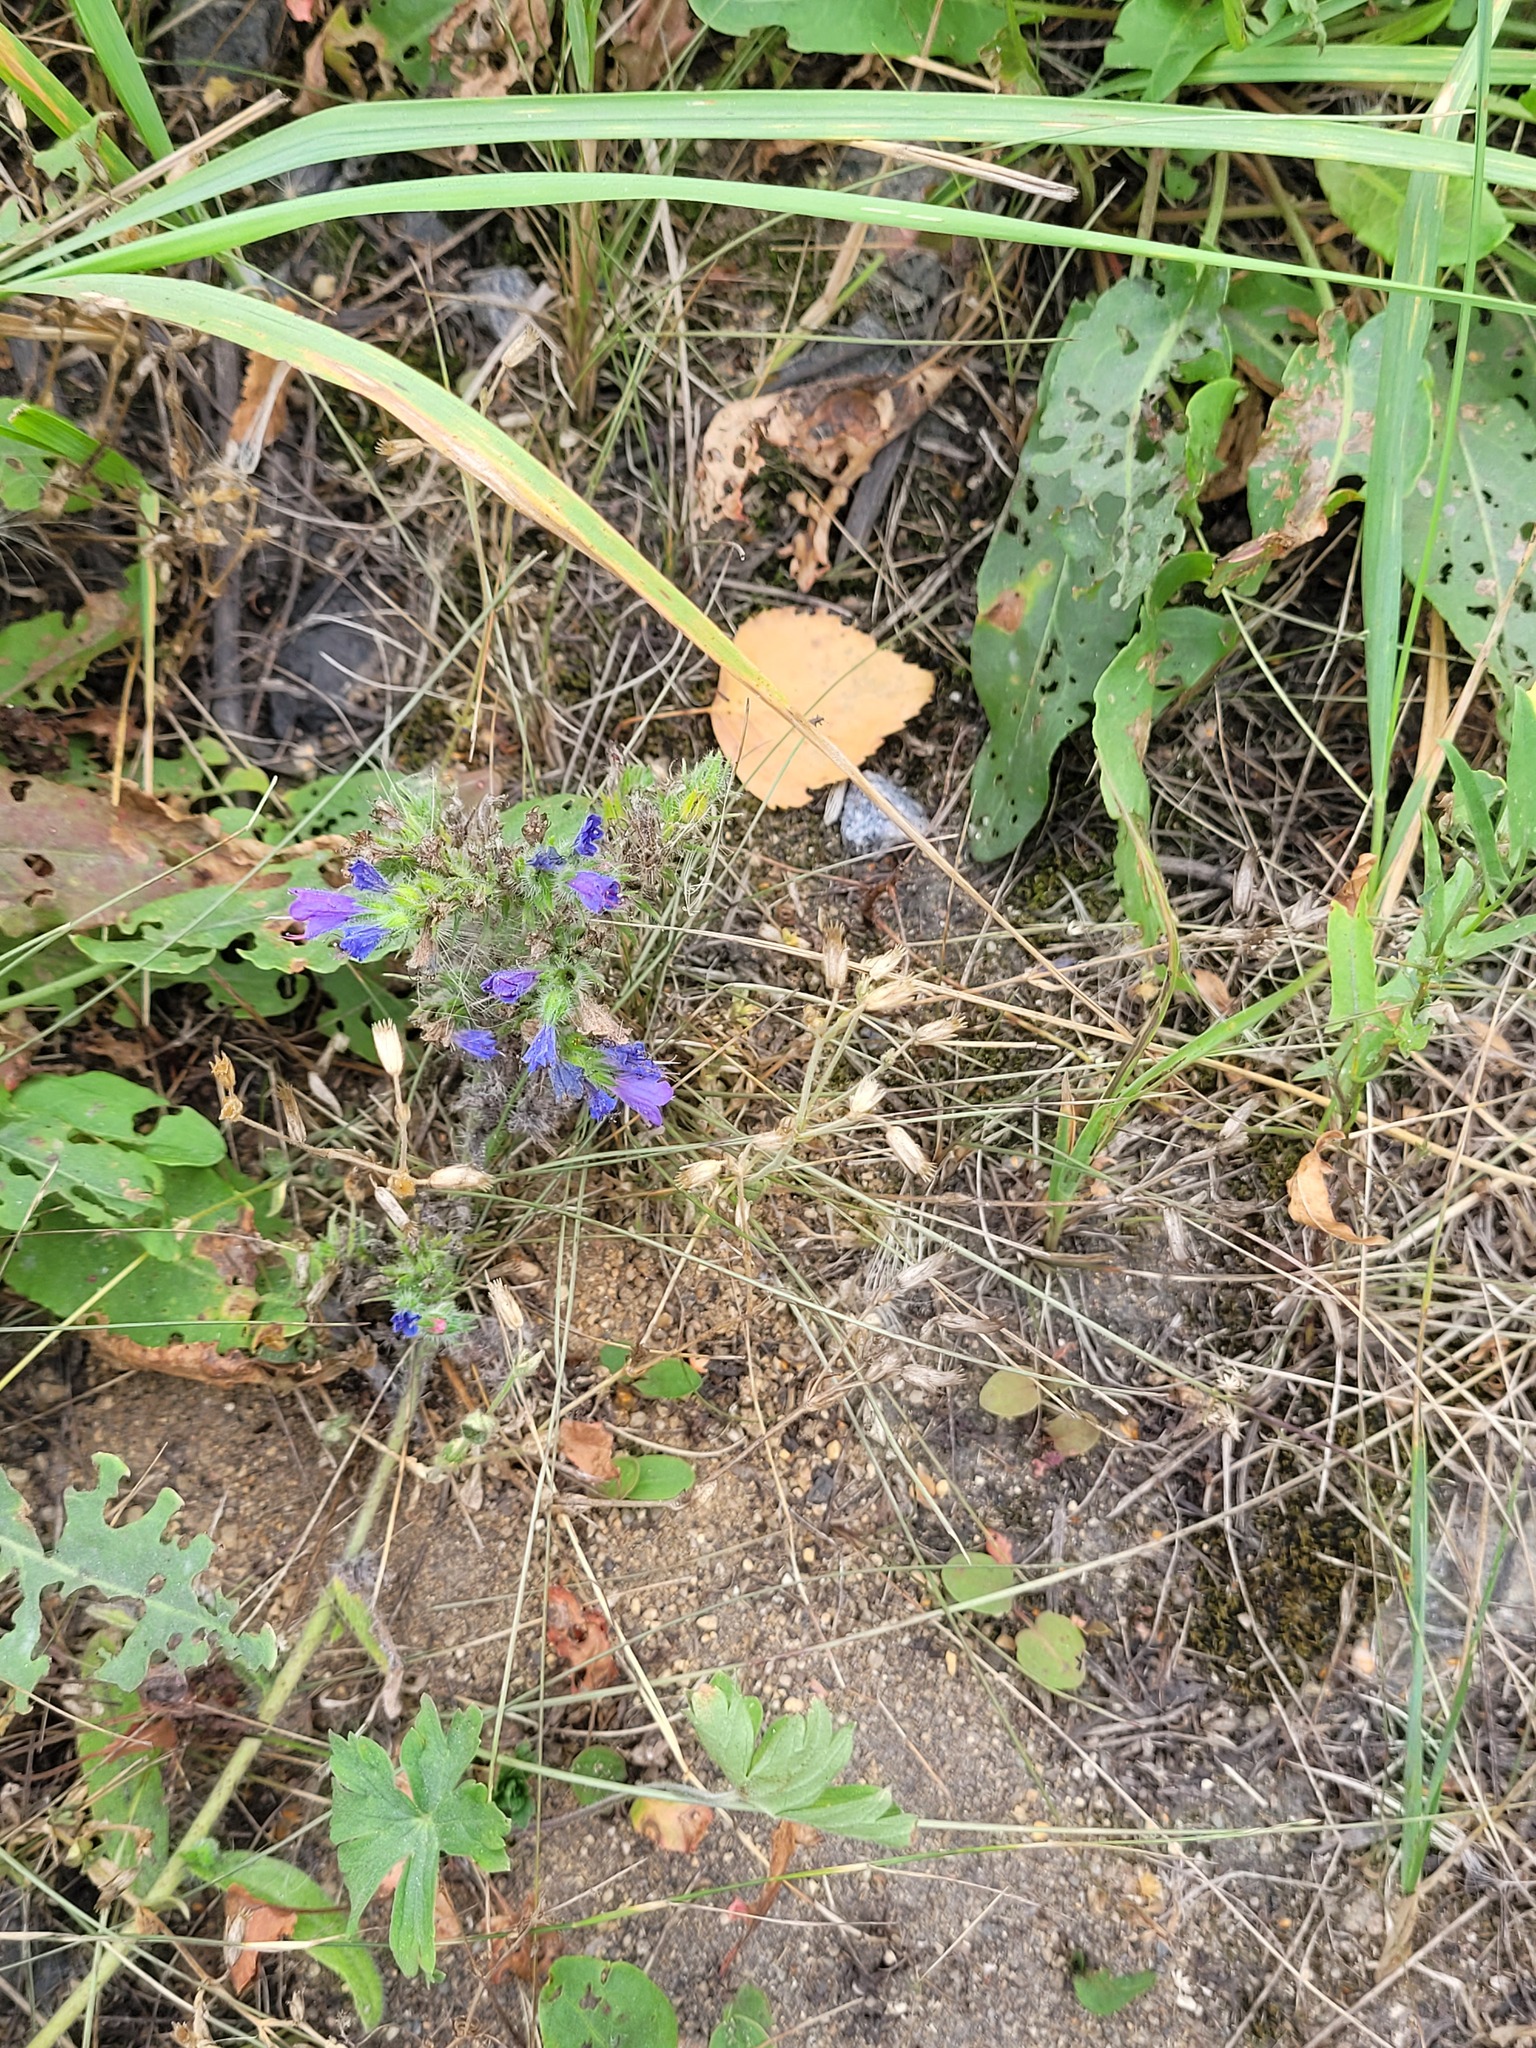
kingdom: Plantae
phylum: Tracheophyta
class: Magnoliopsida
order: Boraginales
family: Boraginaceae
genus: Echium
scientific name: Echium vulgare
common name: Common viper's bugloss
